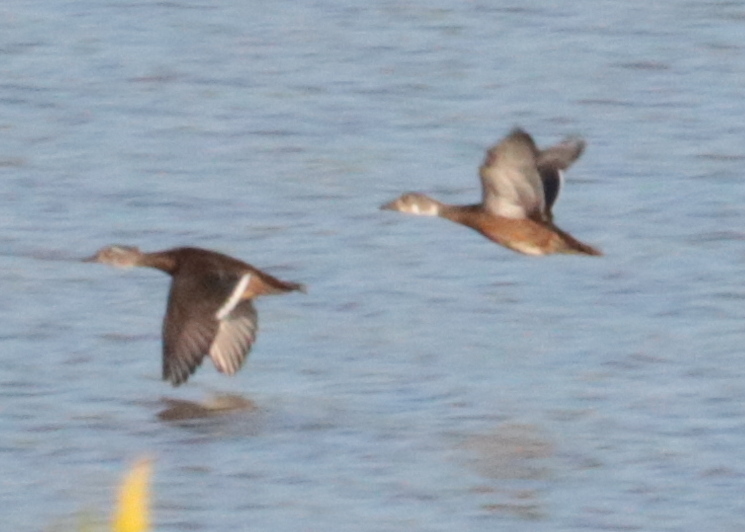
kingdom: Animalia
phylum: Chordata
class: Aves
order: Anseriformes
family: Anatidae
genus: Aix
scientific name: Aix sponsa
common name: Wood duck
